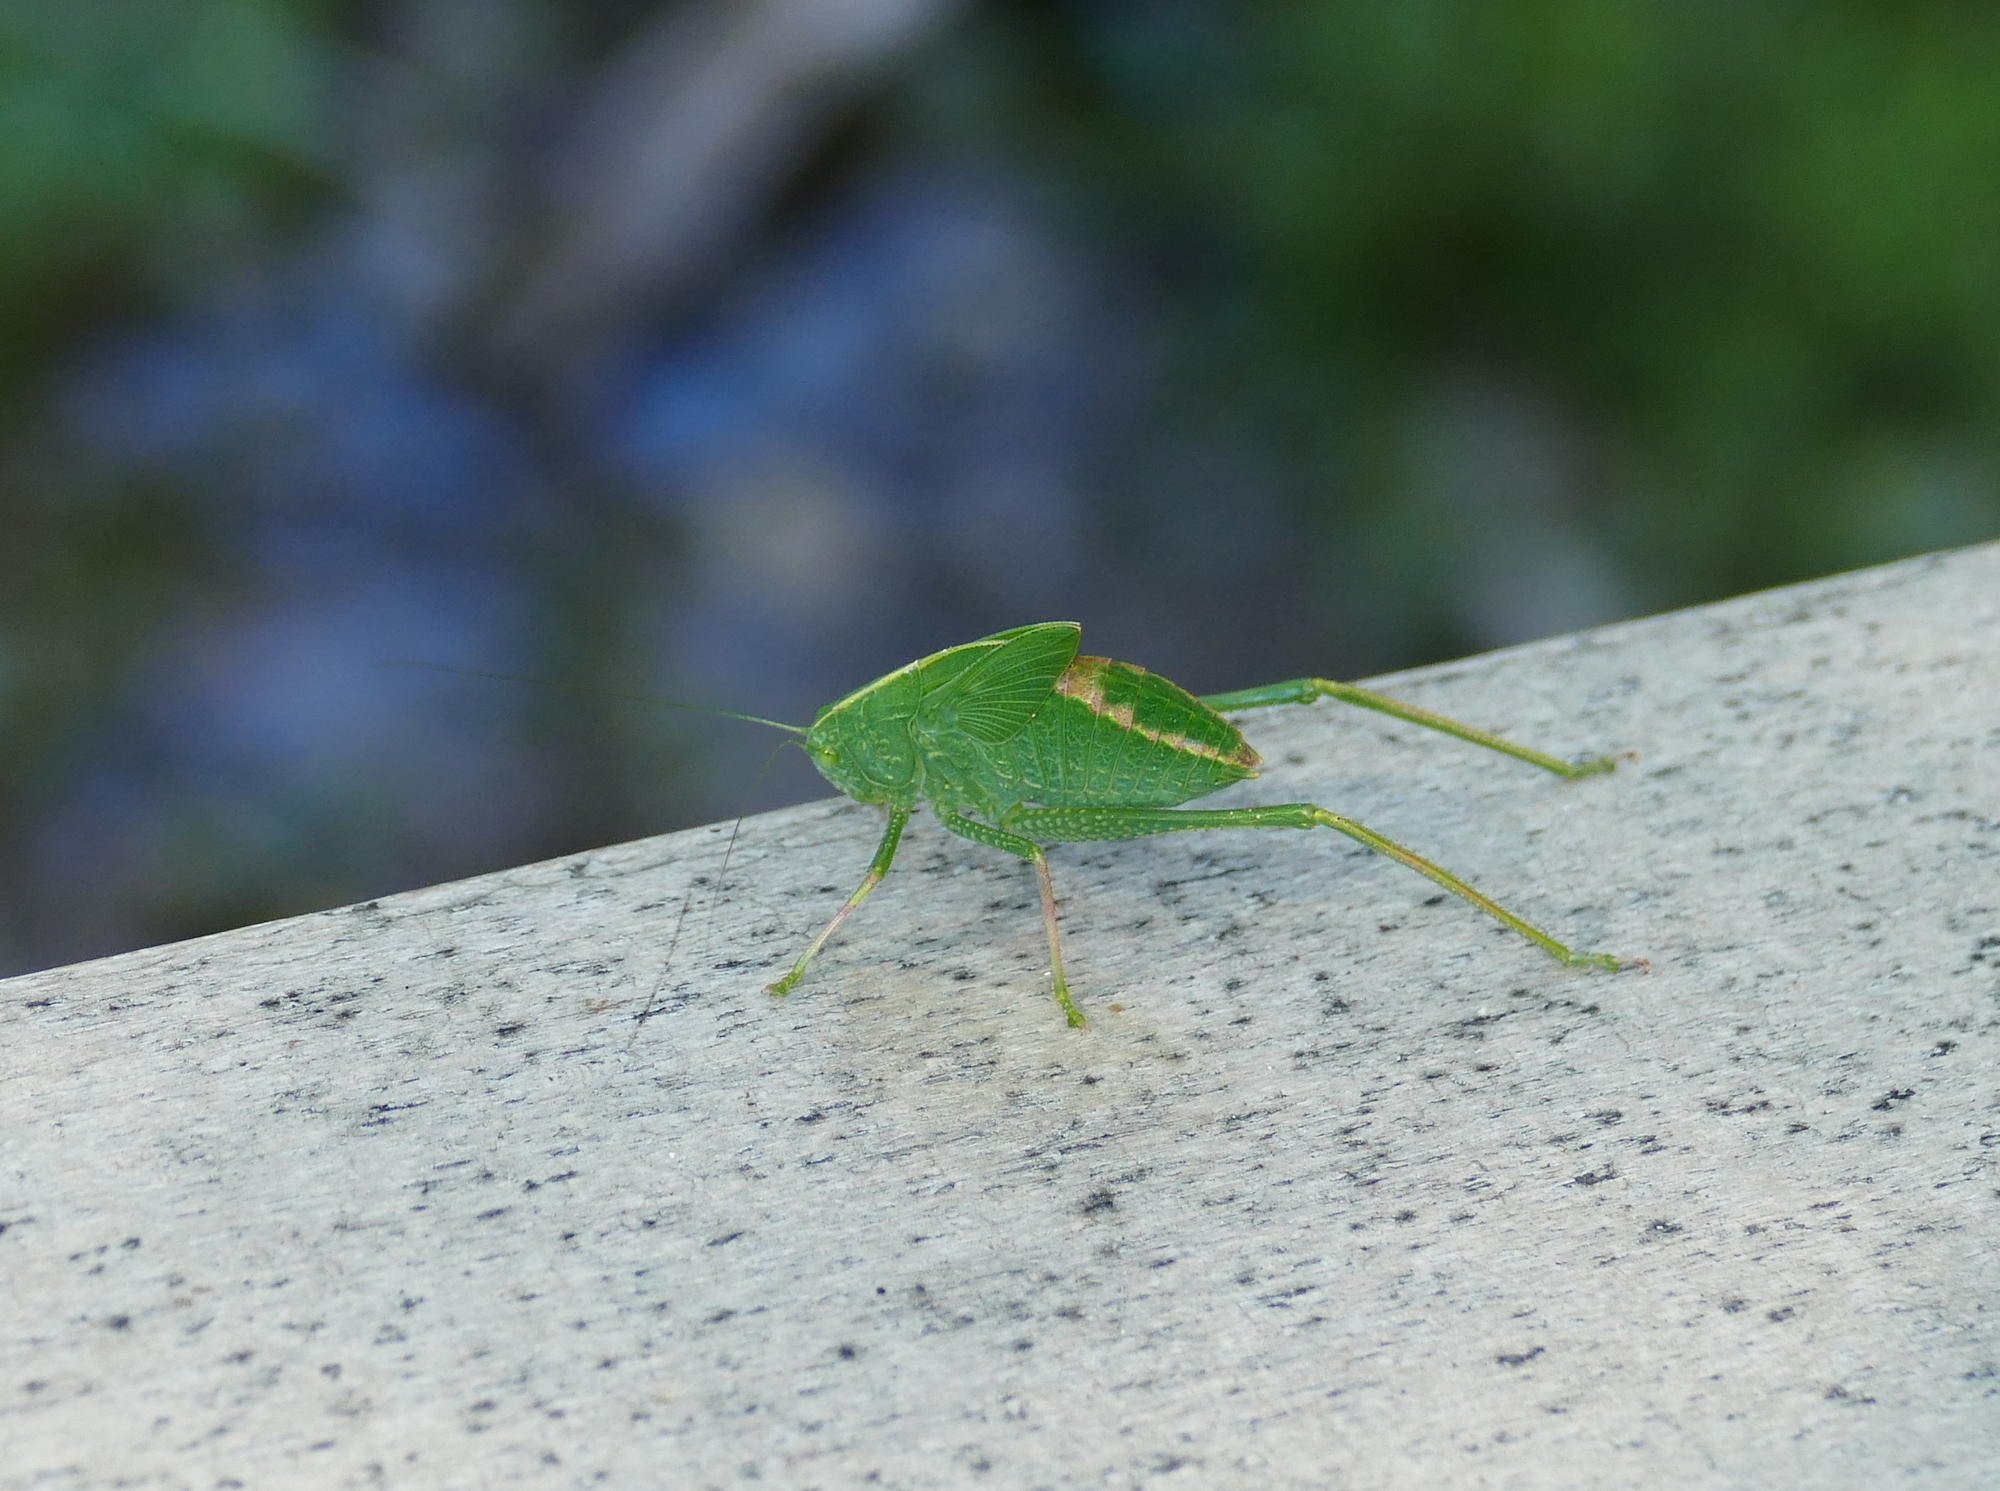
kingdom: Animalia
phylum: Arthropoda
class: Insecta
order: Orthoptera
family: Tettigoniidae
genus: Microcentrum
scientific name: Microcentrum rhombifolium
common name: Broad-winged katydid
